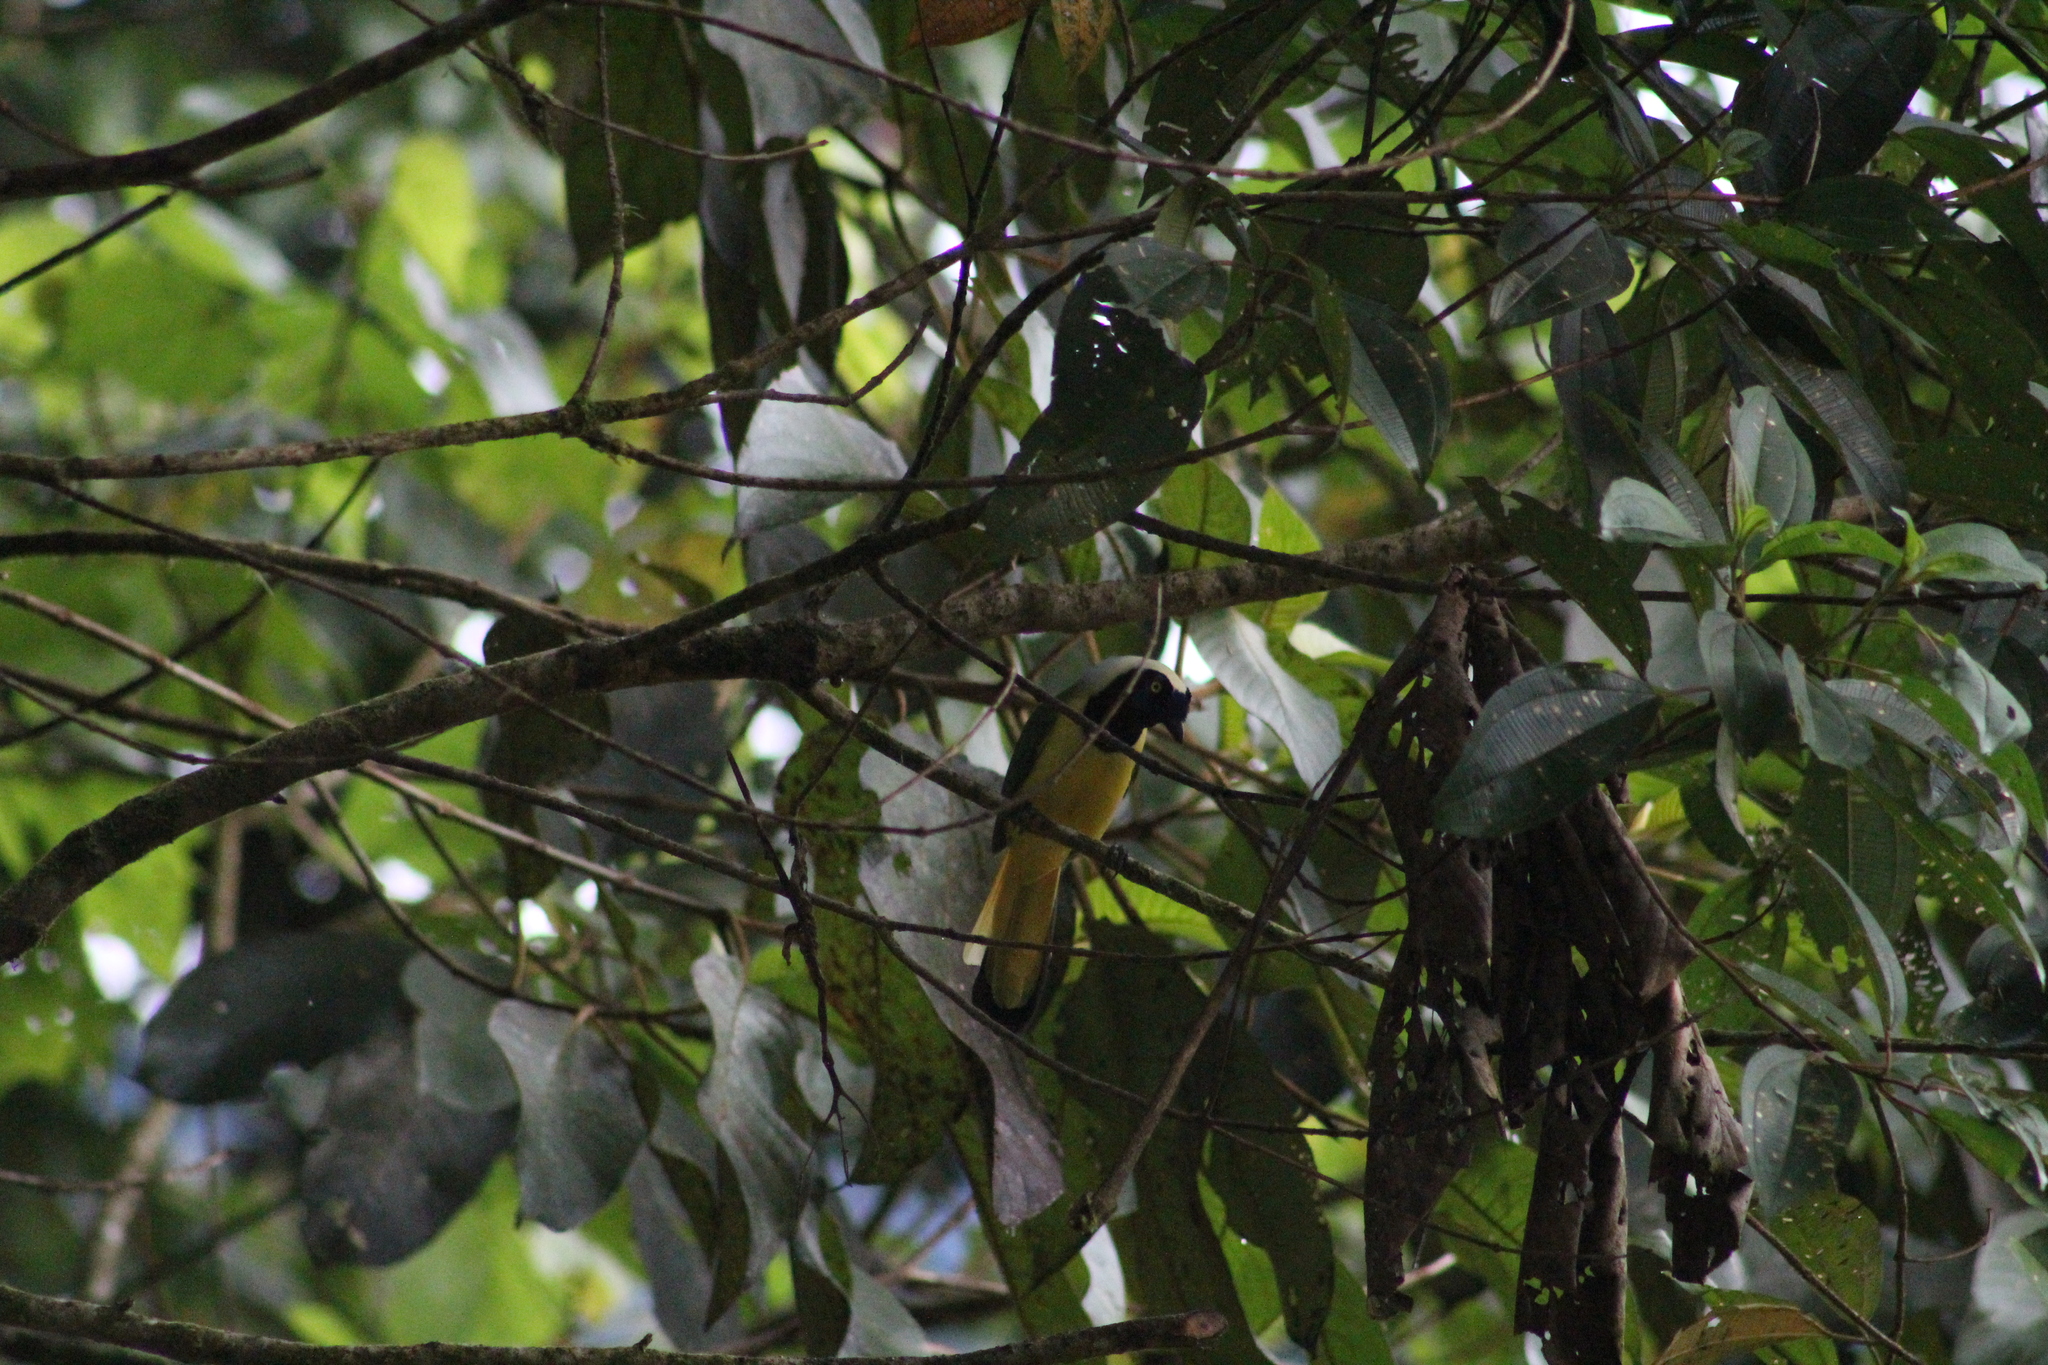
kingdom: Animalia
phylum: Chordata
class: Aves
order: Passeriformes
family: Corvidae
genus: Cyanocorax
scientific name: Cyanocorax yncas
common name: Green jay
